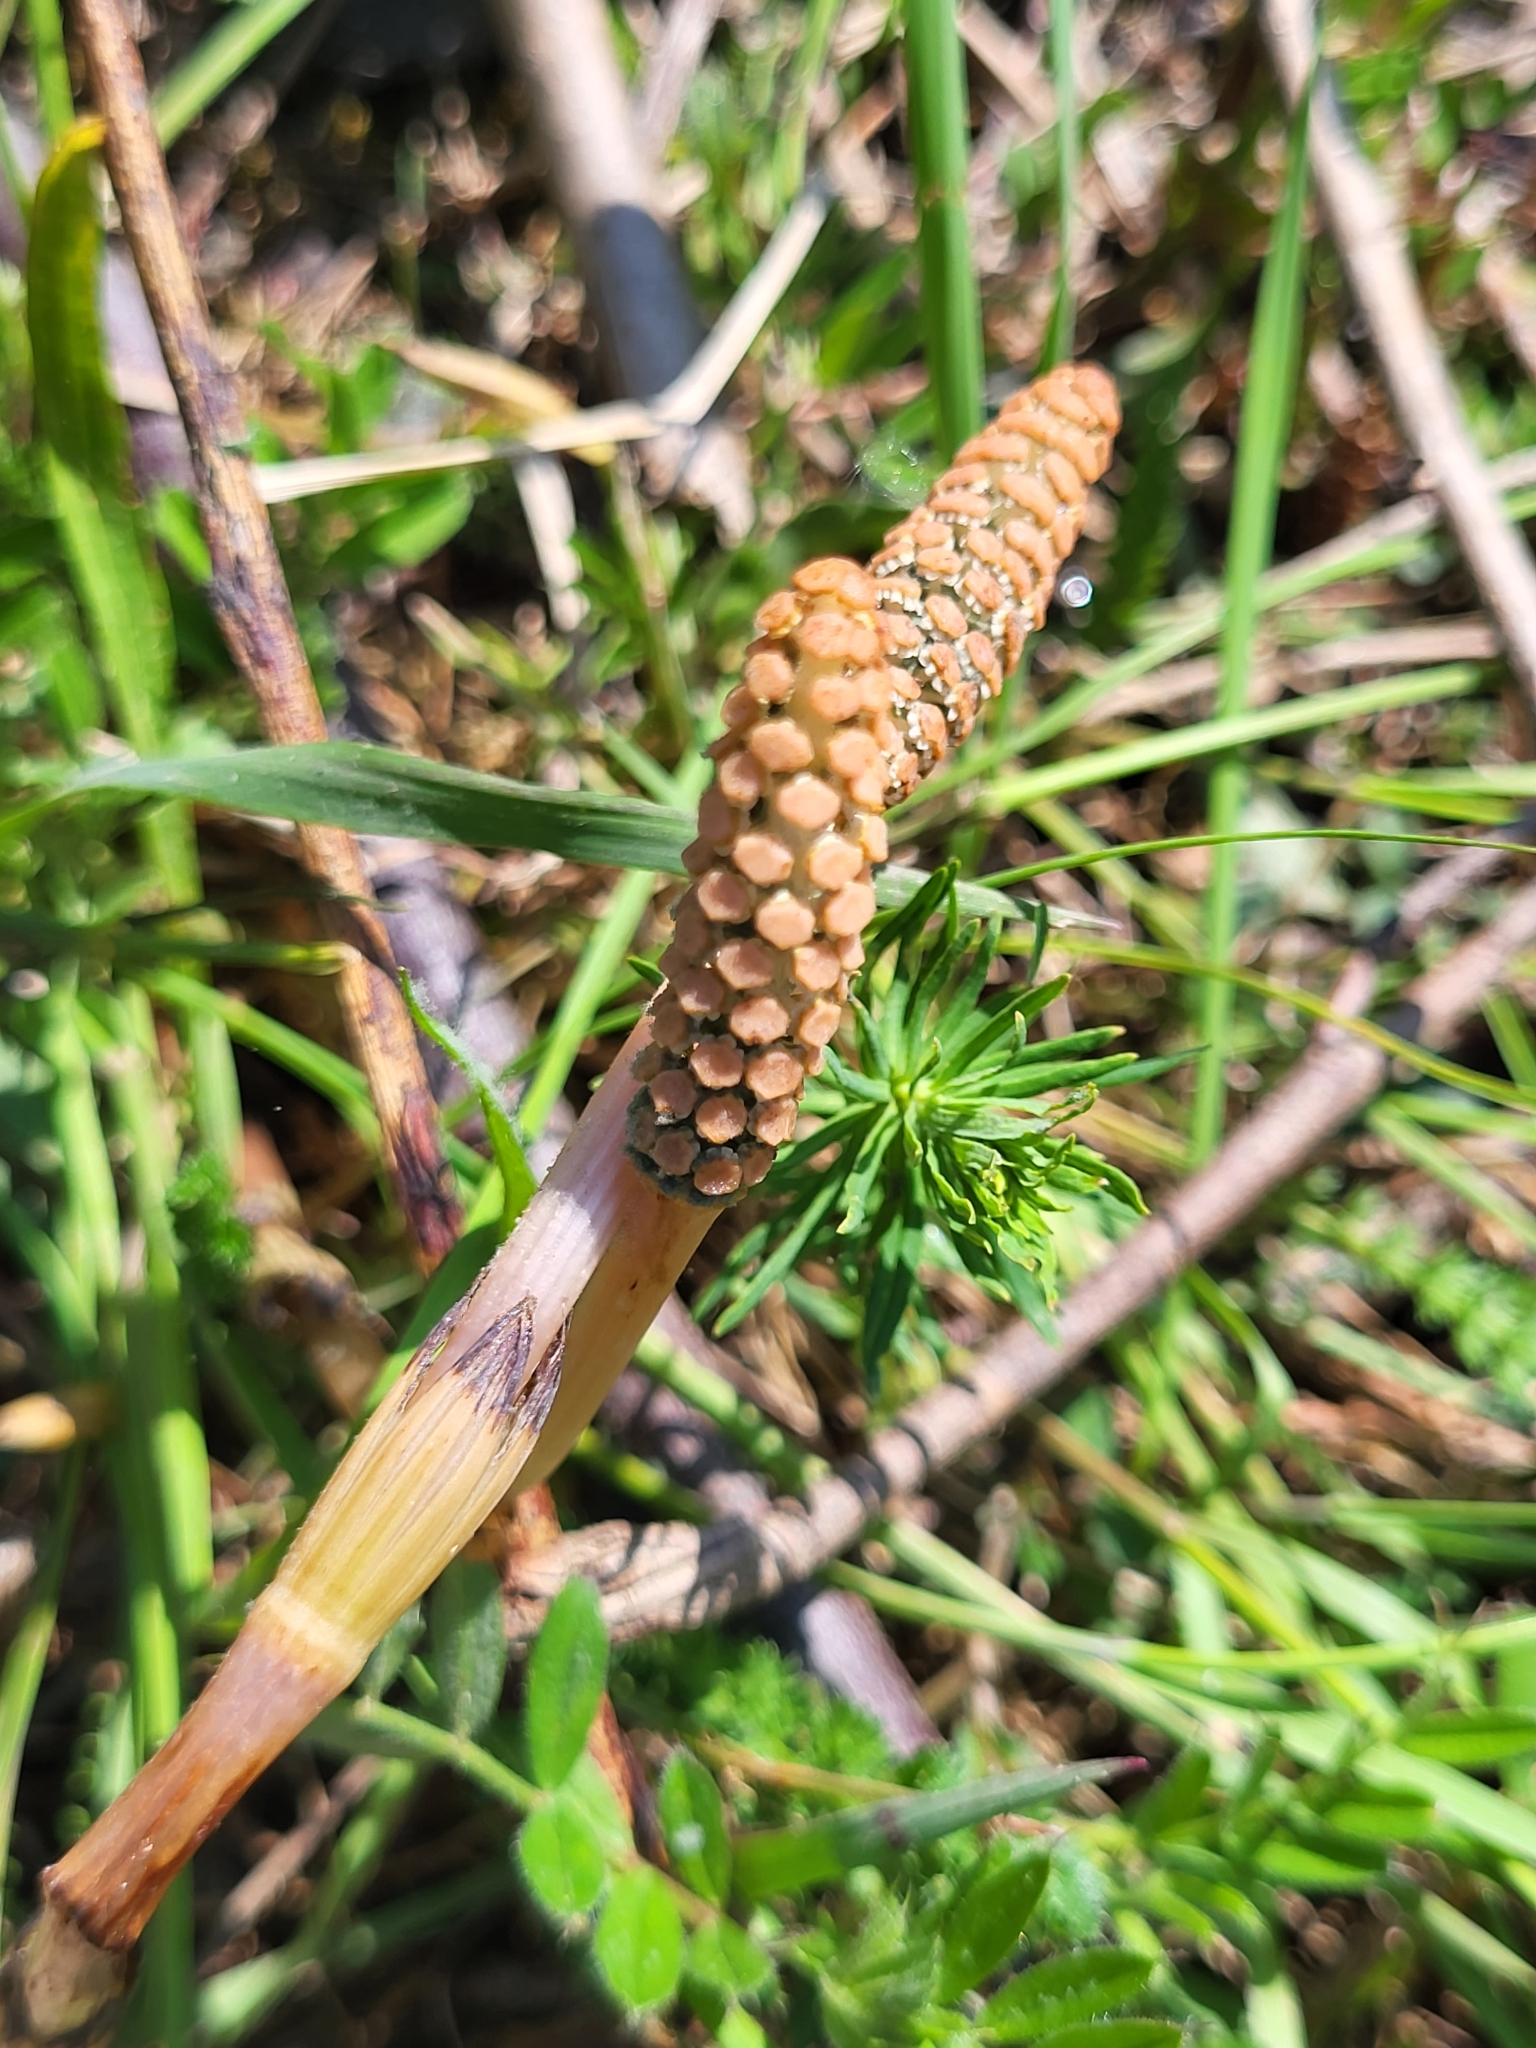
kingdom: Plantae
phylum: Tracheophyta
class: Polypodiopsida
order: Equisetales
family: Equisetaceae
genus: Equisetum
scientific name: Equisetum arvense
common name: Field horsetail
